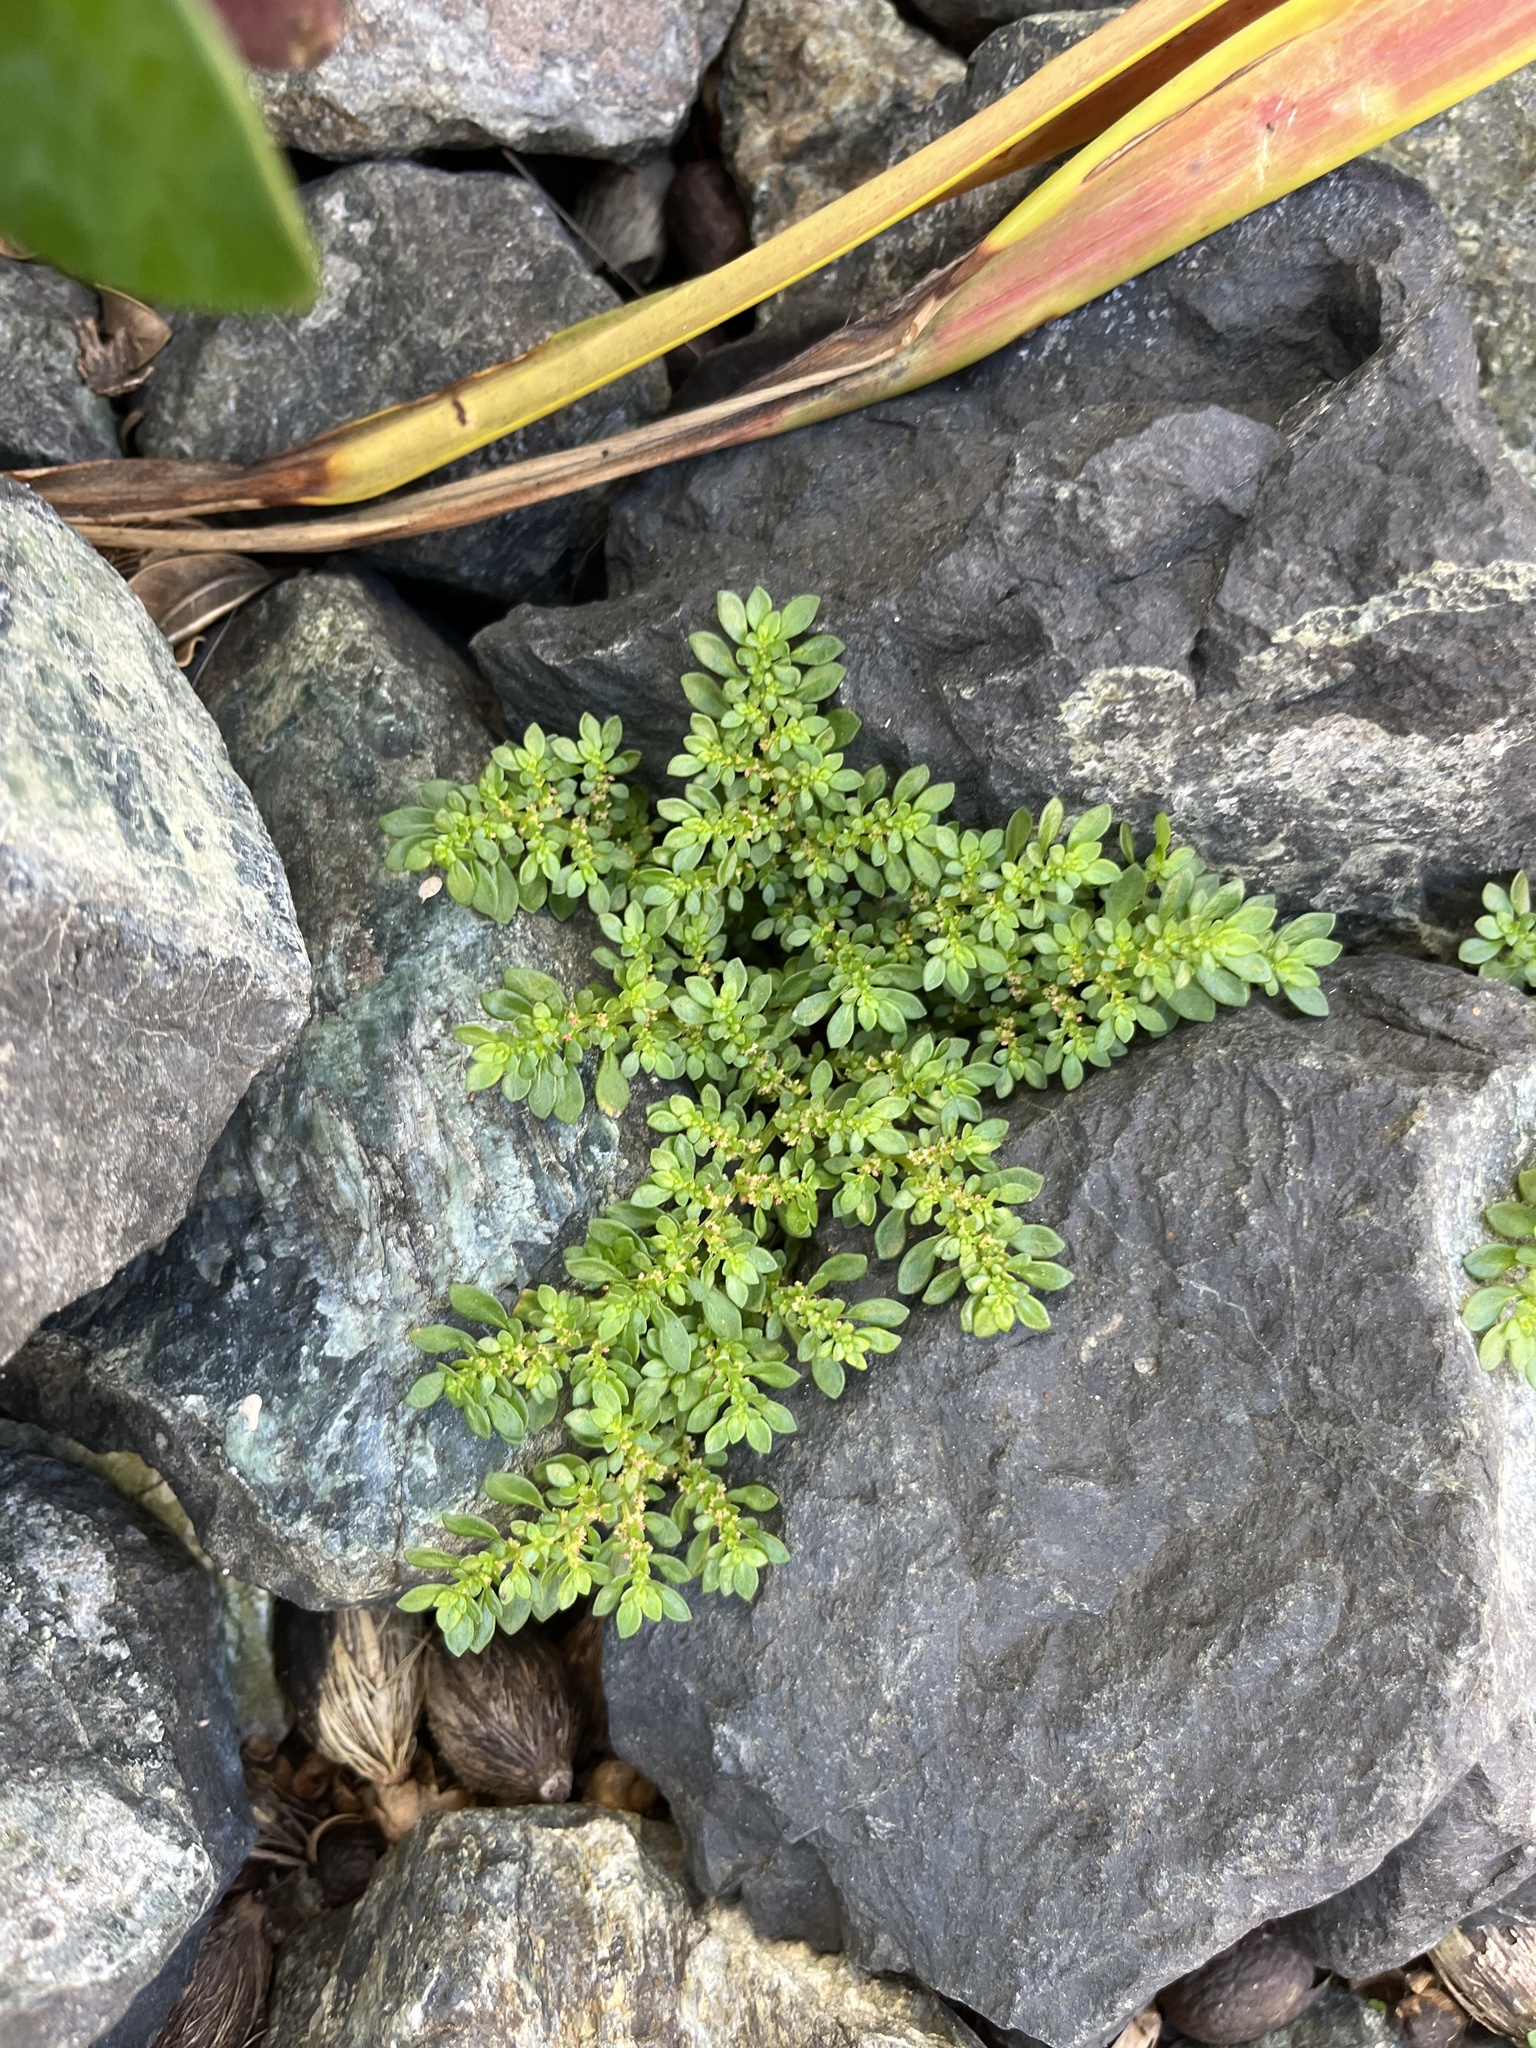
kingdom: Plantae
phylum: Tracheophyta
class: Magnoliopsida
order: Rosales
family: Urticaceae
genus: Pilea
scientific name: Pilea microphylla
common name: Artillery-plant
